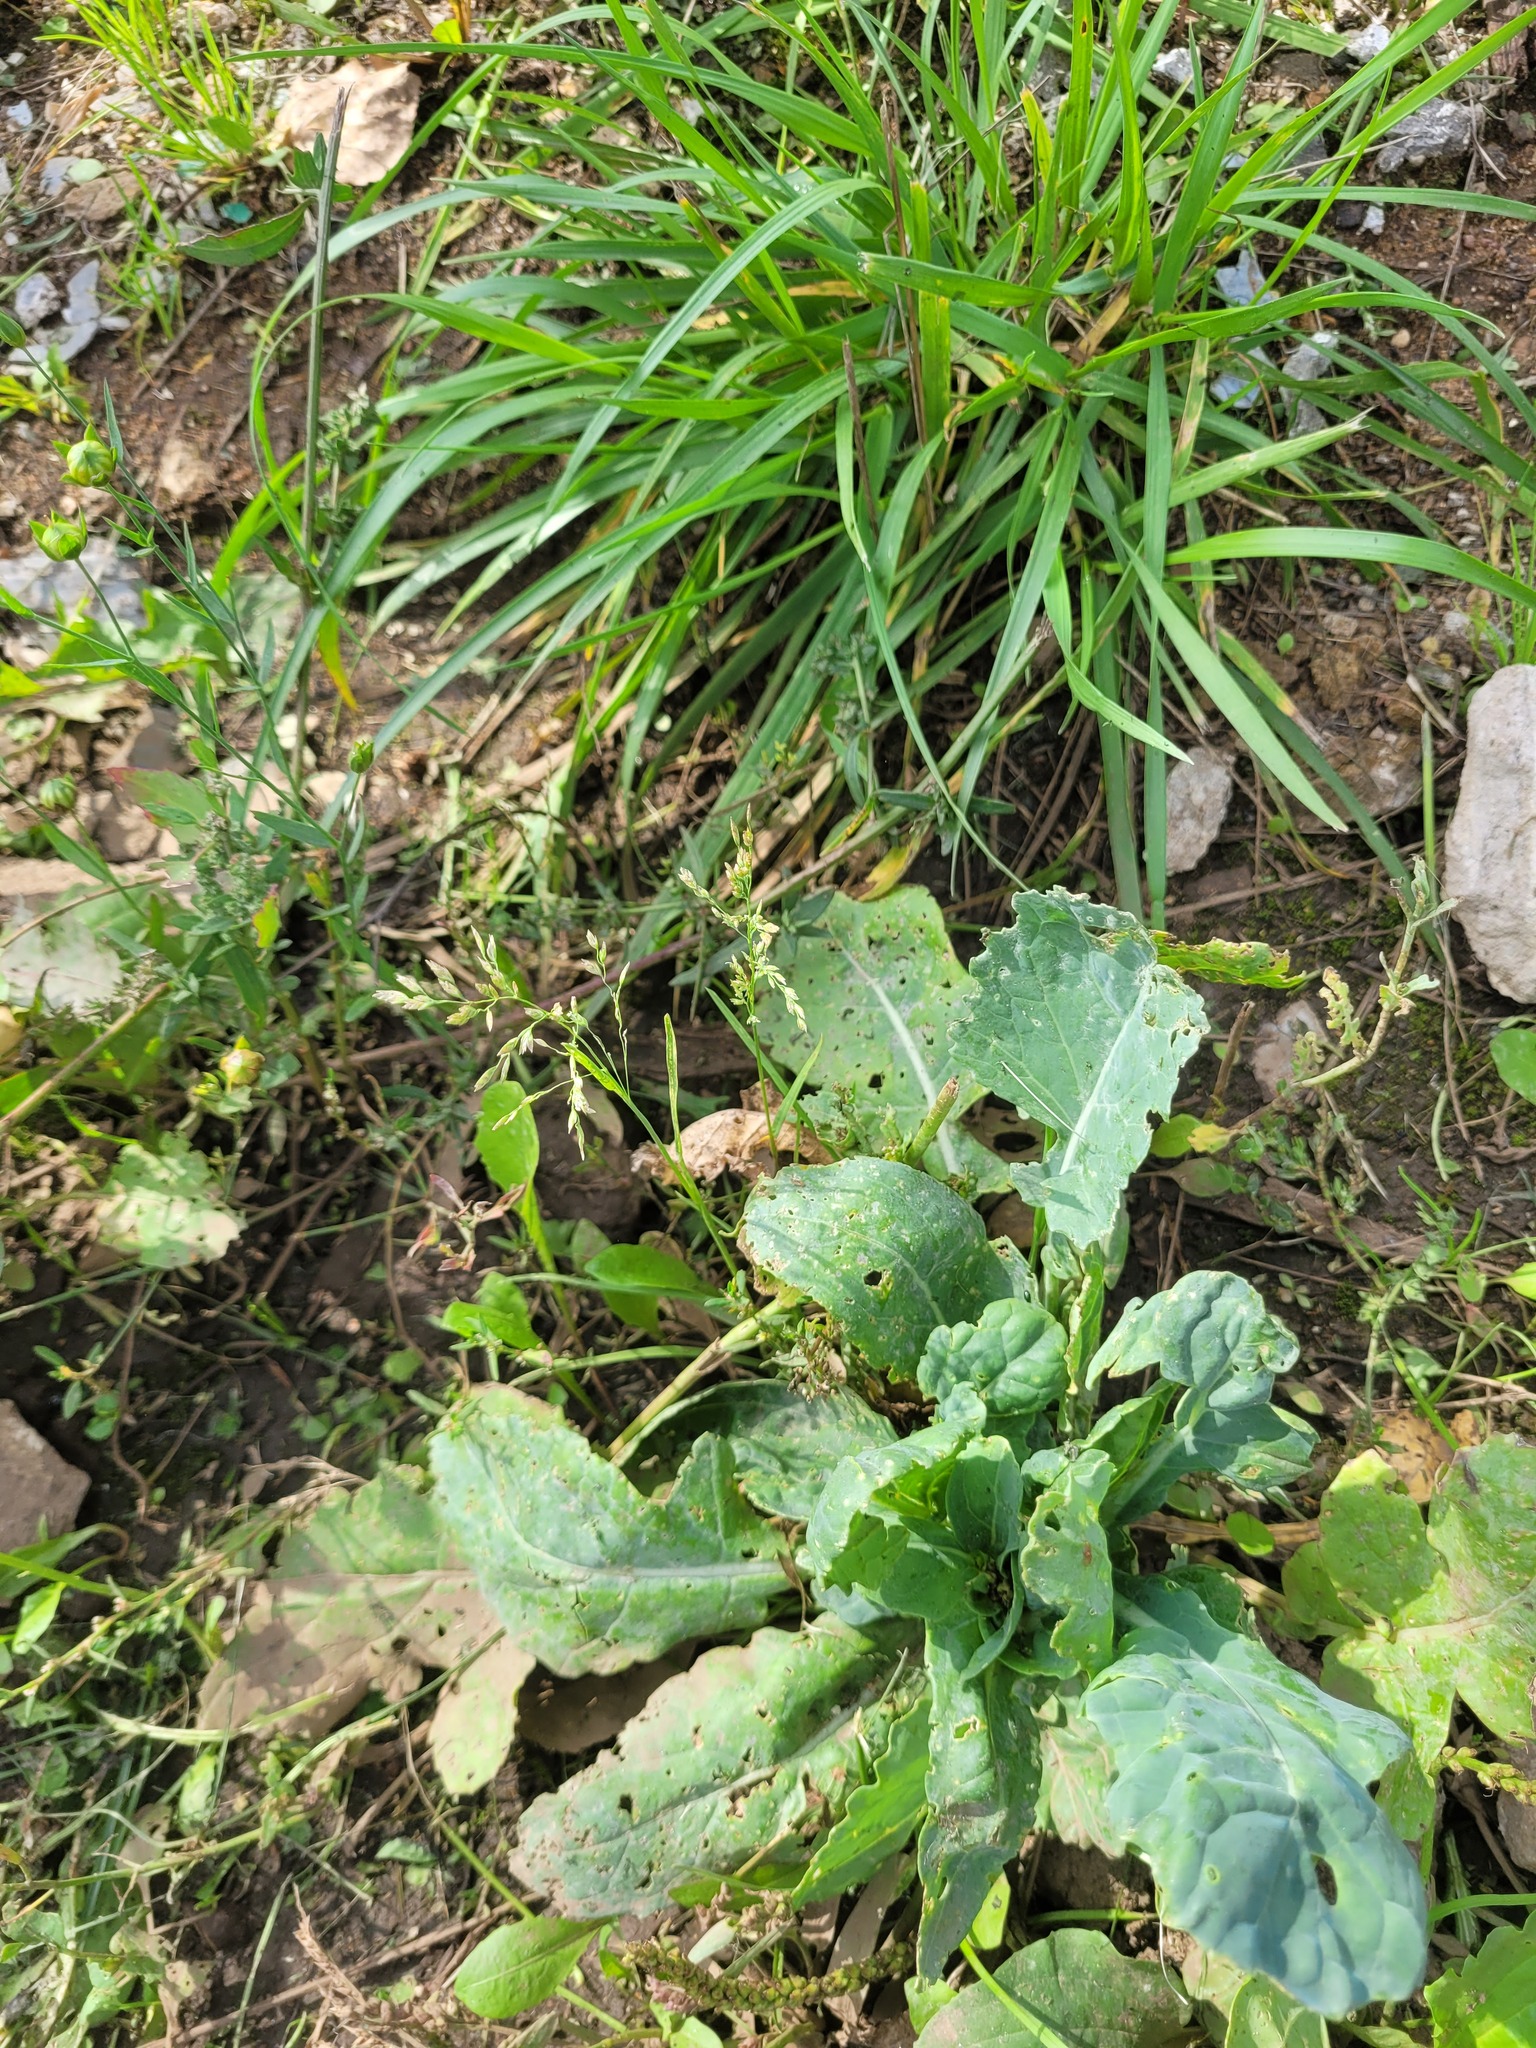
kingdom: Plantae
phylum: Tracheophyta
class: Liliopsida
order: Poales
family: Poaceae
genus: Poa
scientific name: Poa annua
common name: Annual bluegrass
